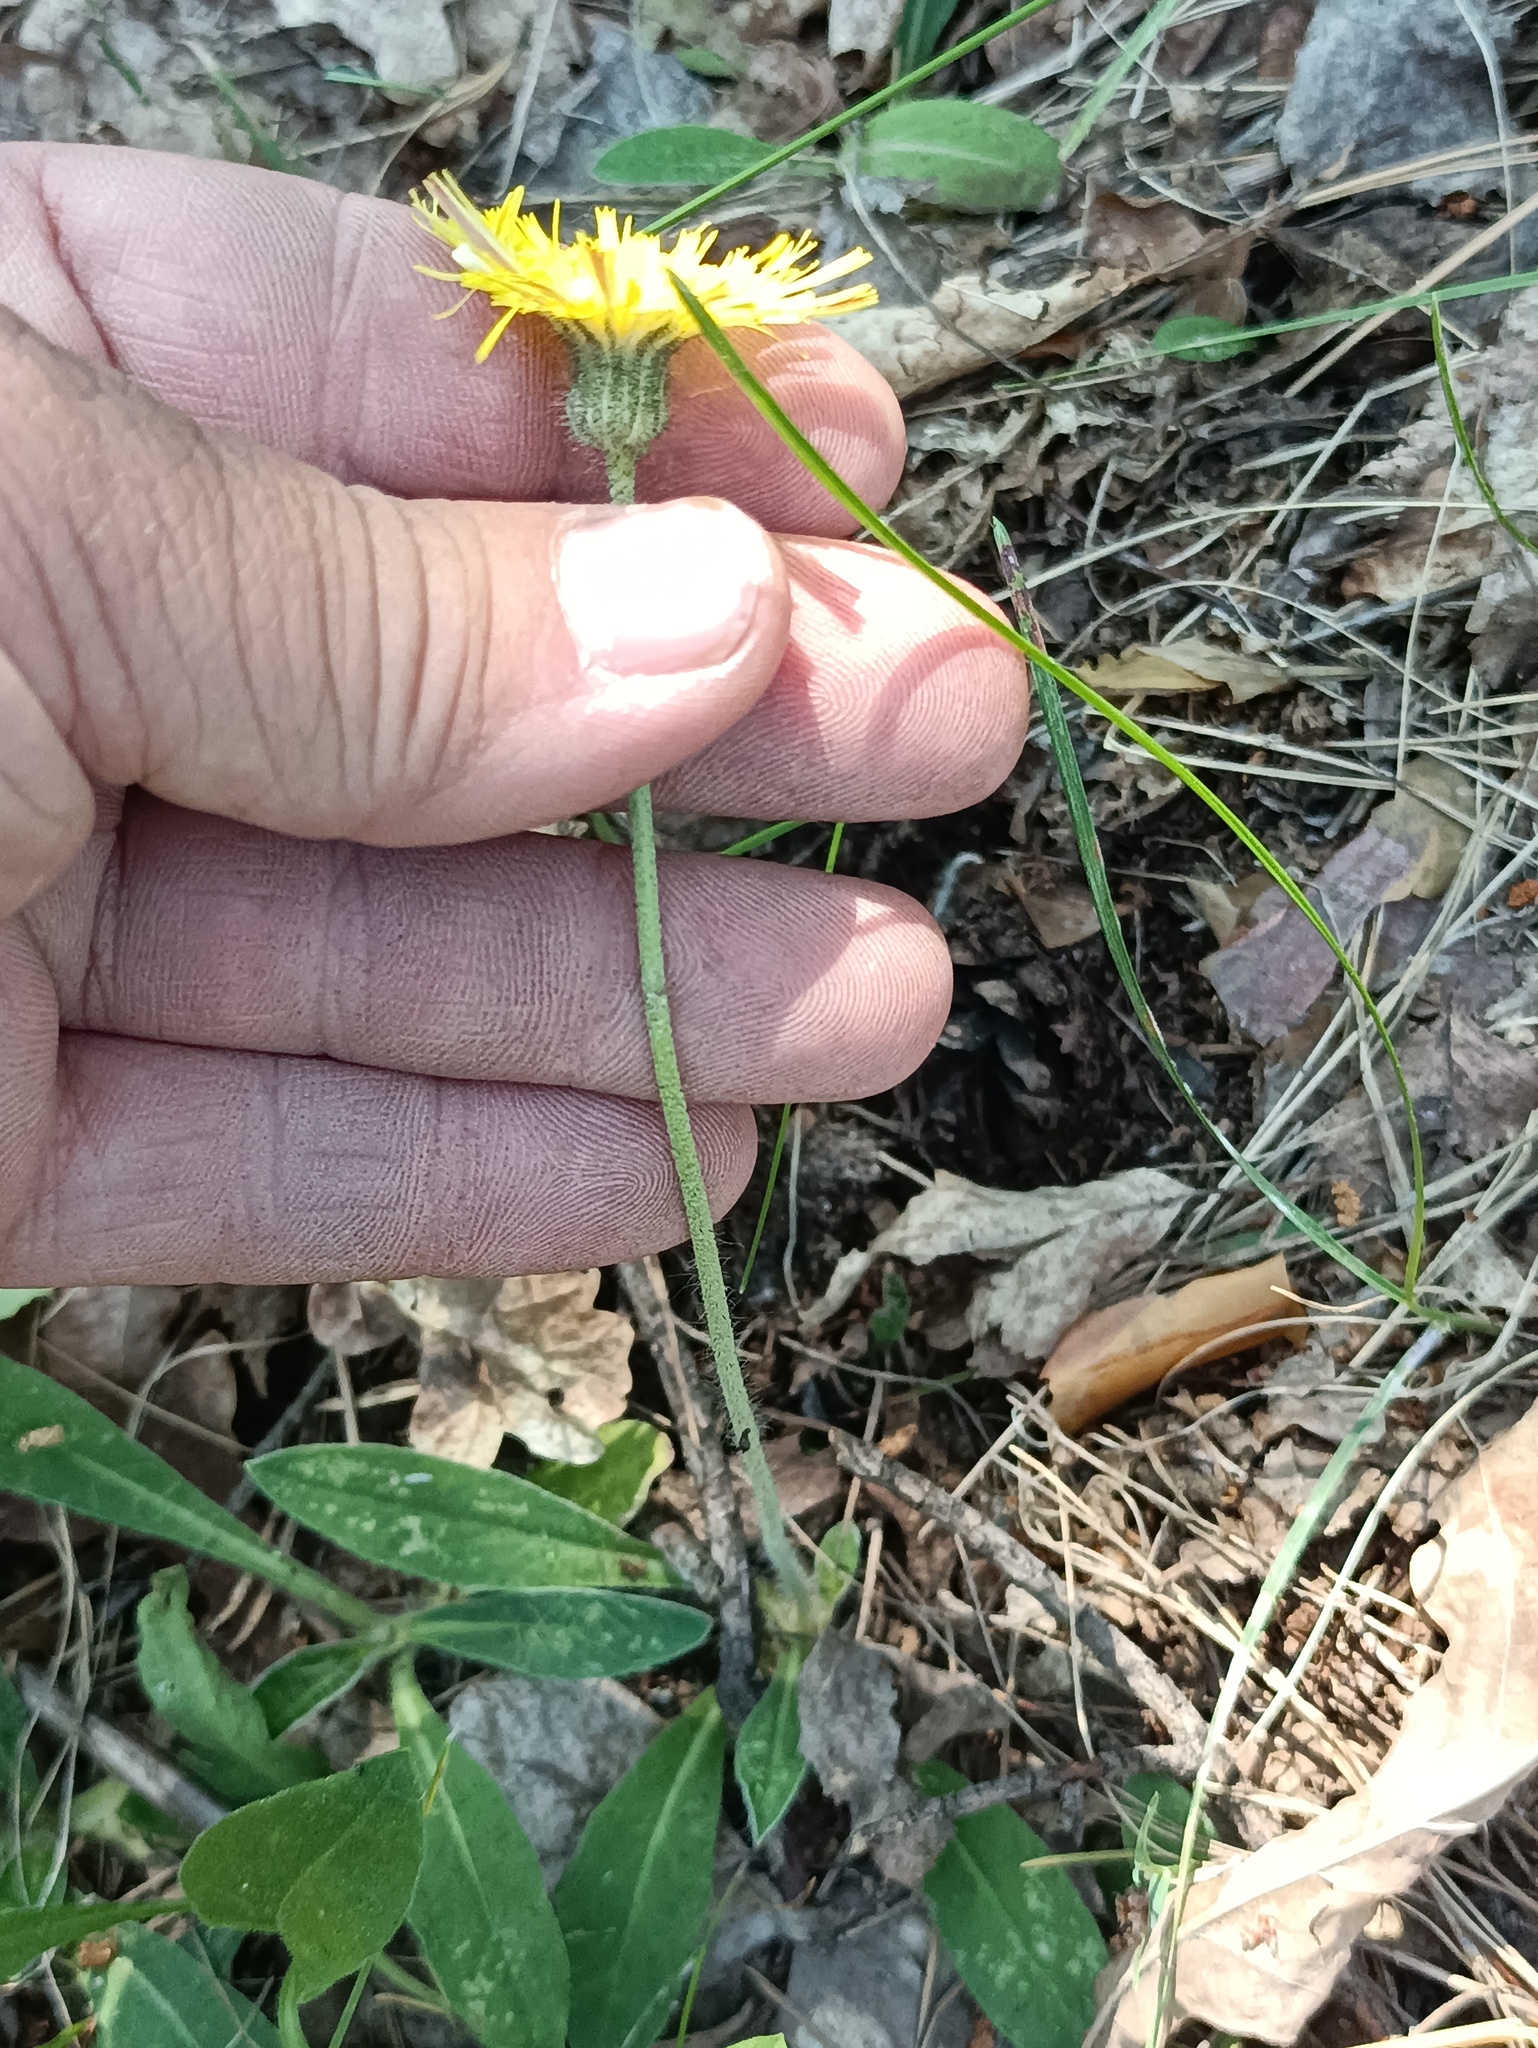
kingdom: Plantae
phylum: Tracheophyta
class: Magnoliopsida
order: Asterales
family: Asteraceae
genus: Pilosella
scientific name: Pilosella officinarum
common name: Mouse-ear hawkweed
